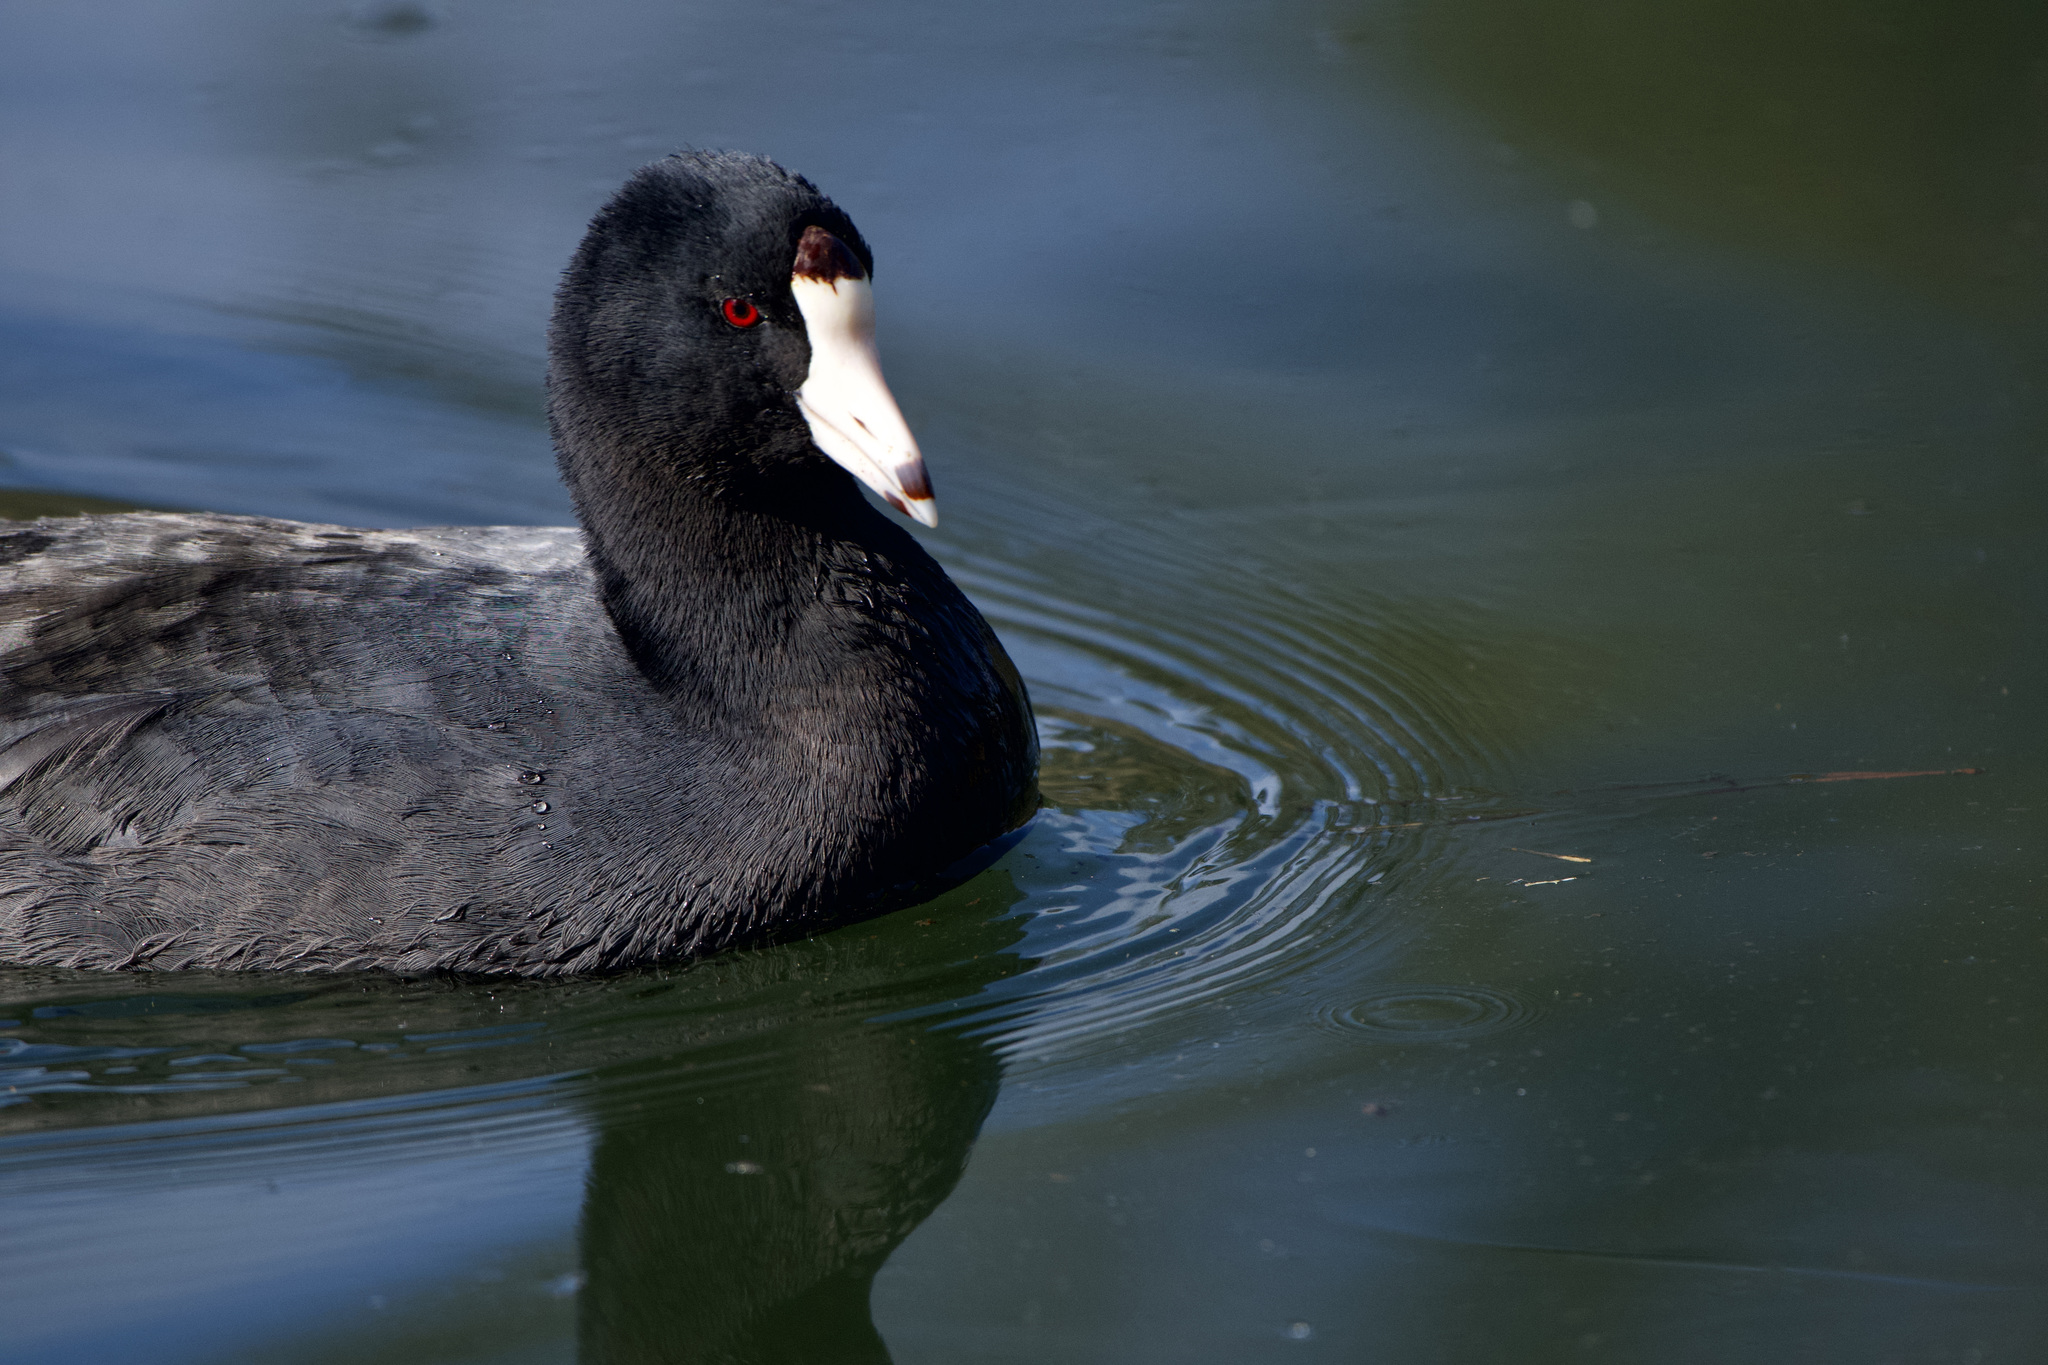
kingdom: Animalia
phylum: Chordata
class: Aves
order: Gruiformes
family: Rallidae
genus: Fulica
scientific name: Fulica americana
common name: American coot
